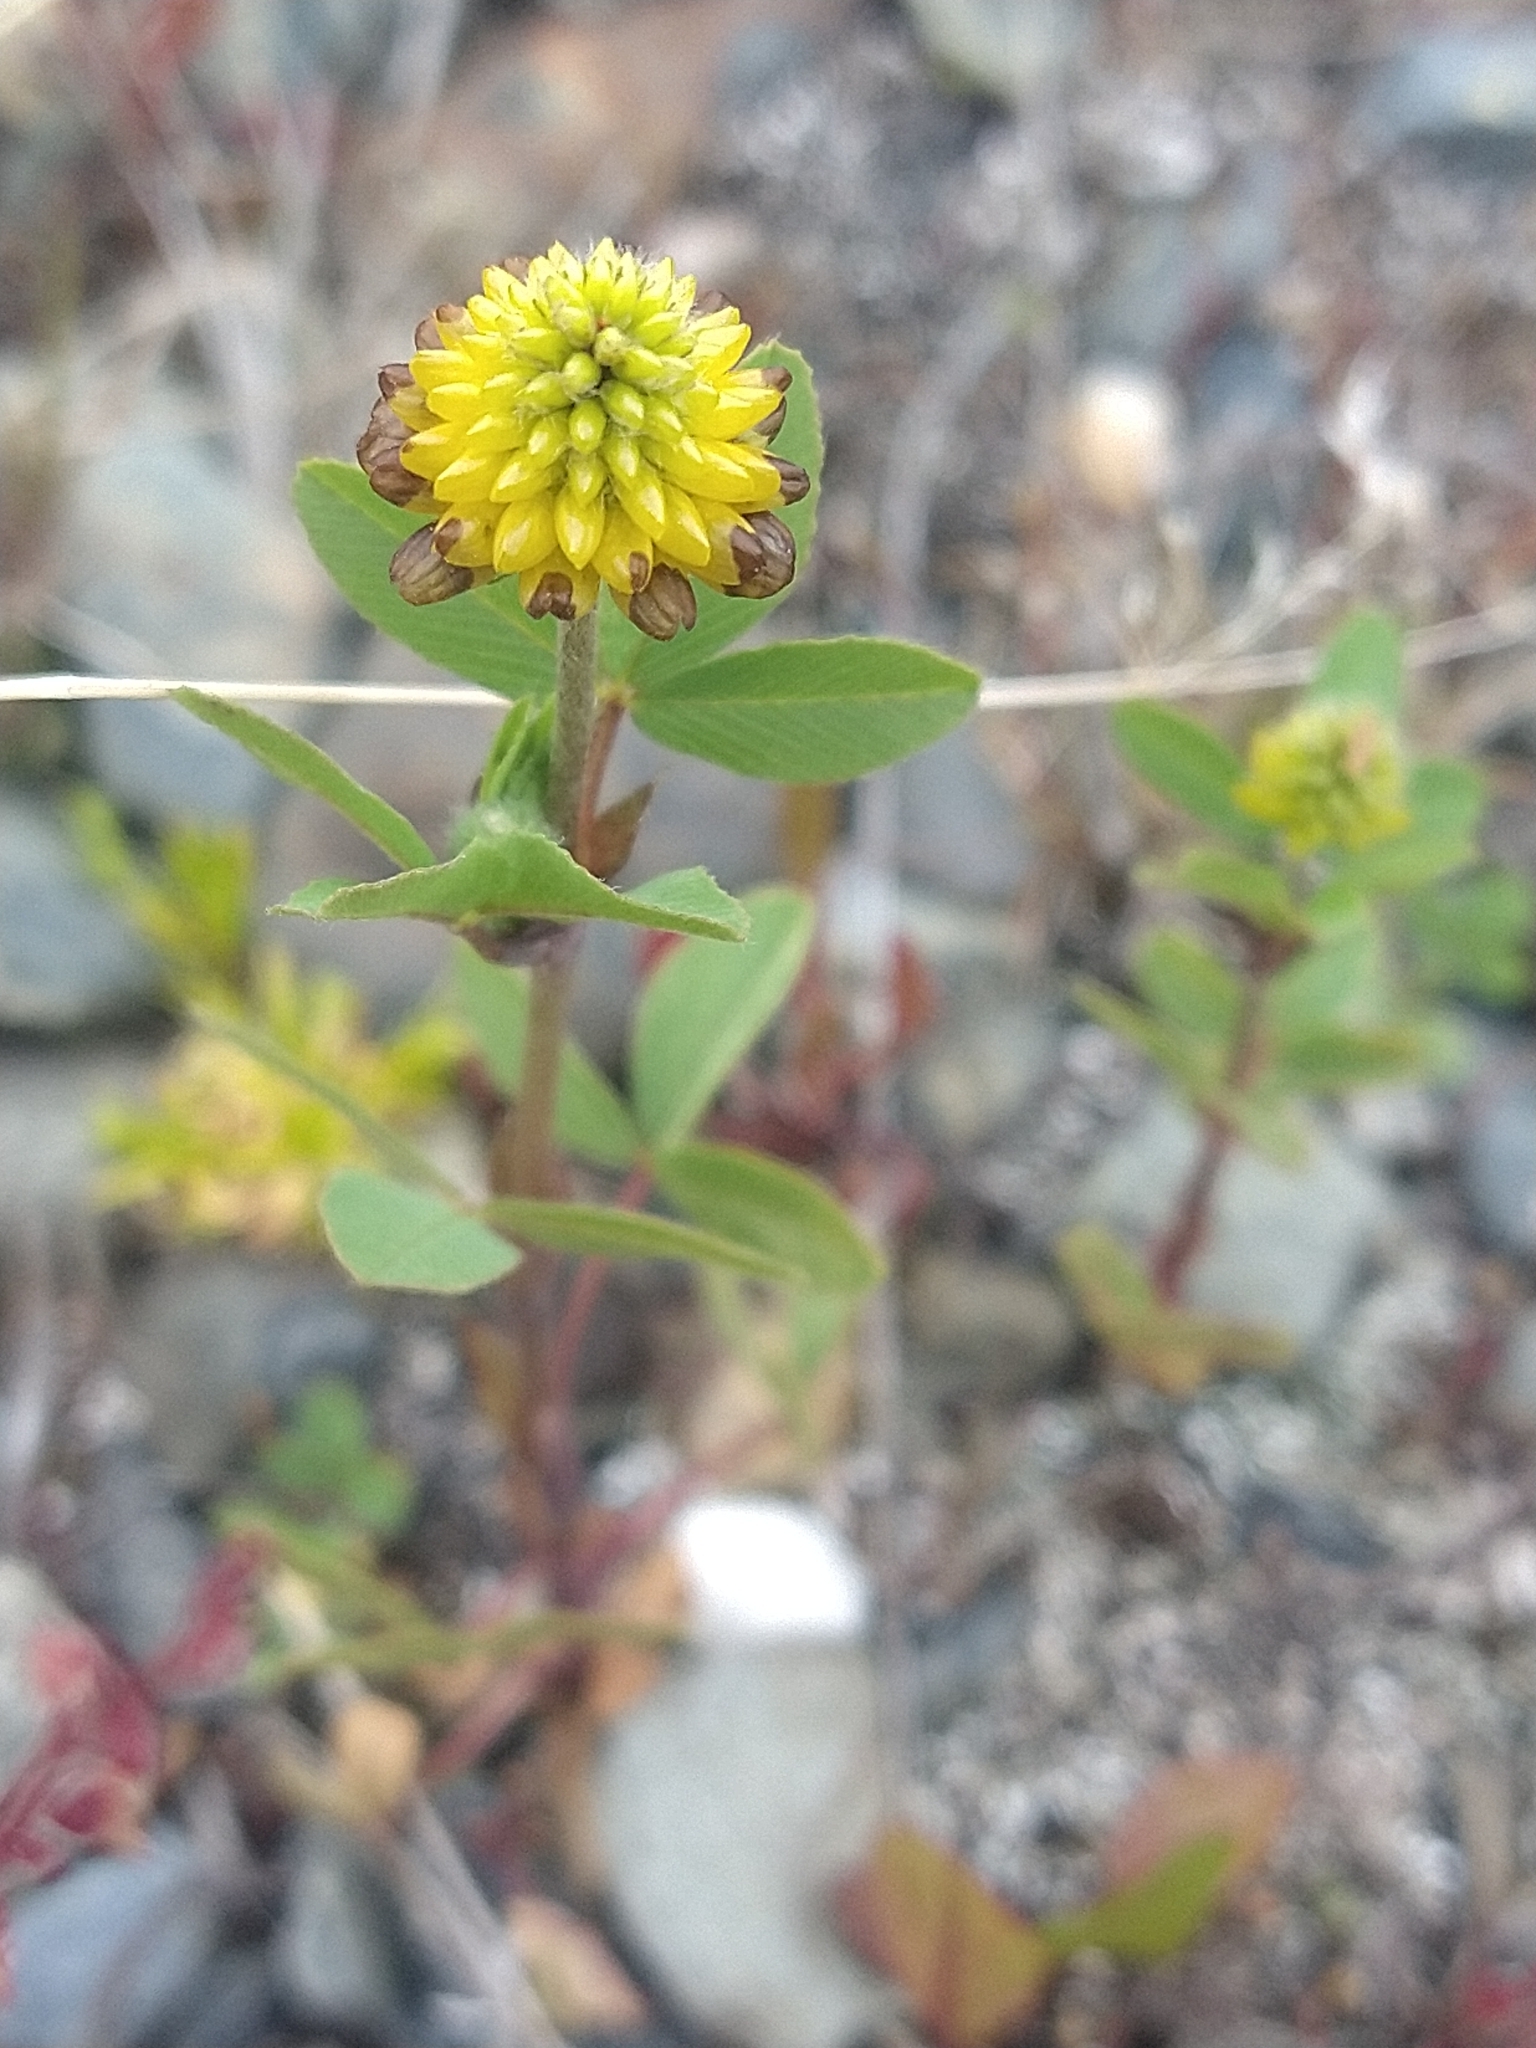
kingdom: Plantae
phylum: Tracheophyta
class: Magnoliopsida
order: Fabales
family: Fabaceae
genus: Trifolium
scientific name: Trifolium spadiceum
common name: Brown moor clover
